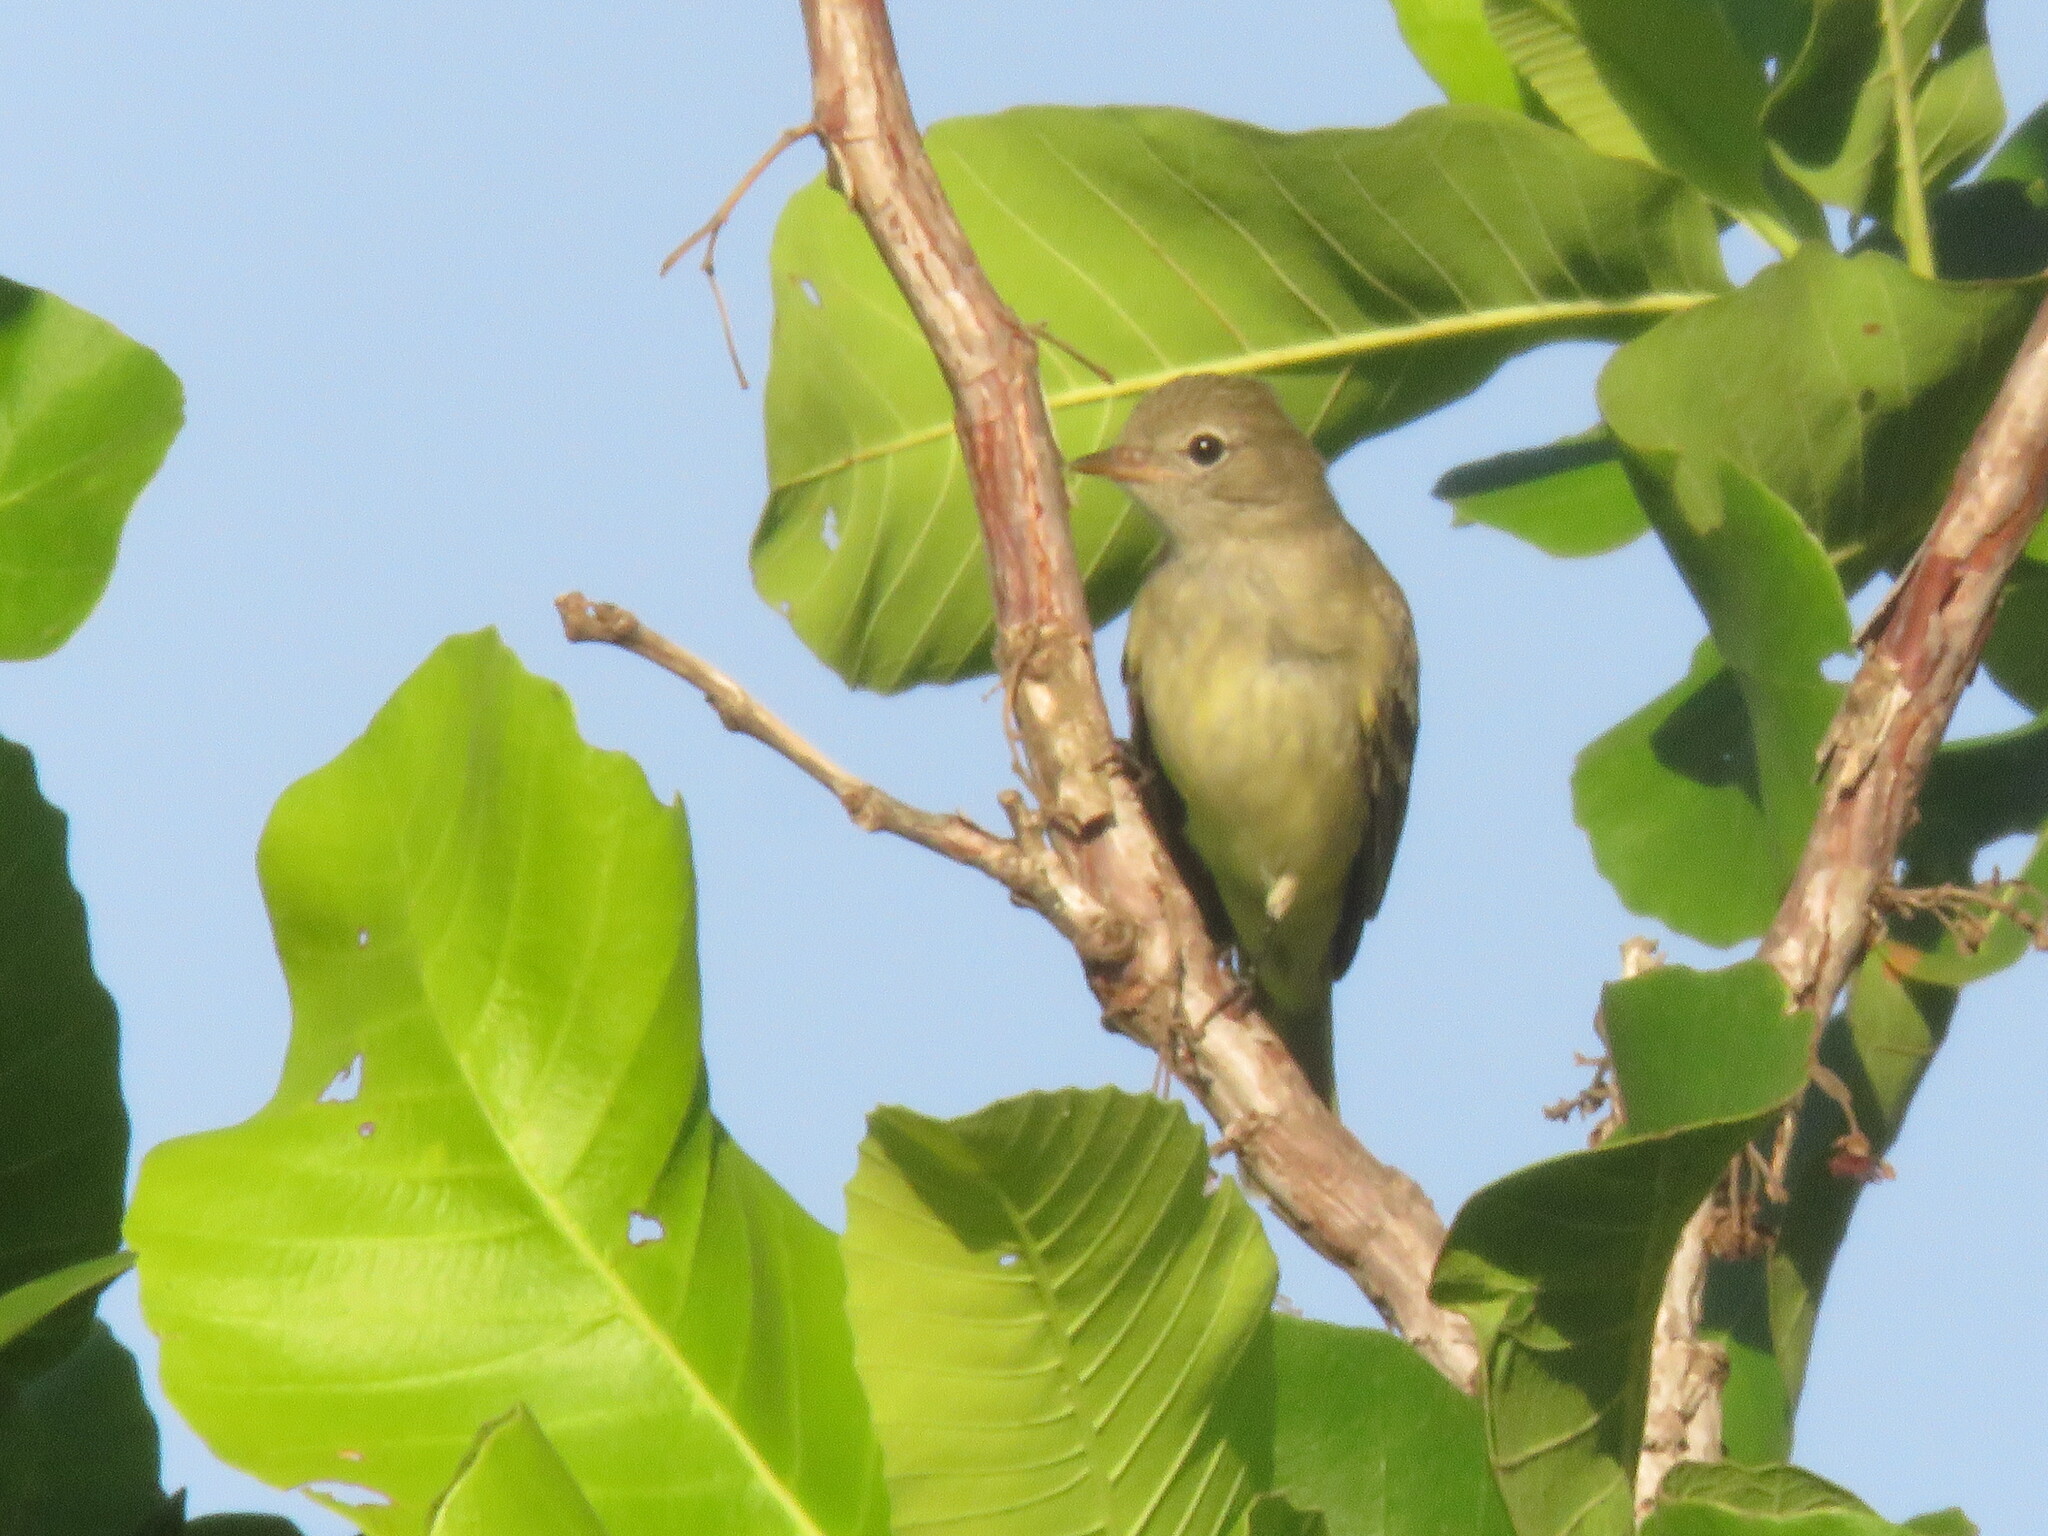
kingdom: Animalia
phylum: Chordata
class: Aves
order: Passeriformes
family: Tyrannidae
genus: Elaenia
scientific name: Elaenia flavogaster
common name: Yellow-bellied elaenia
